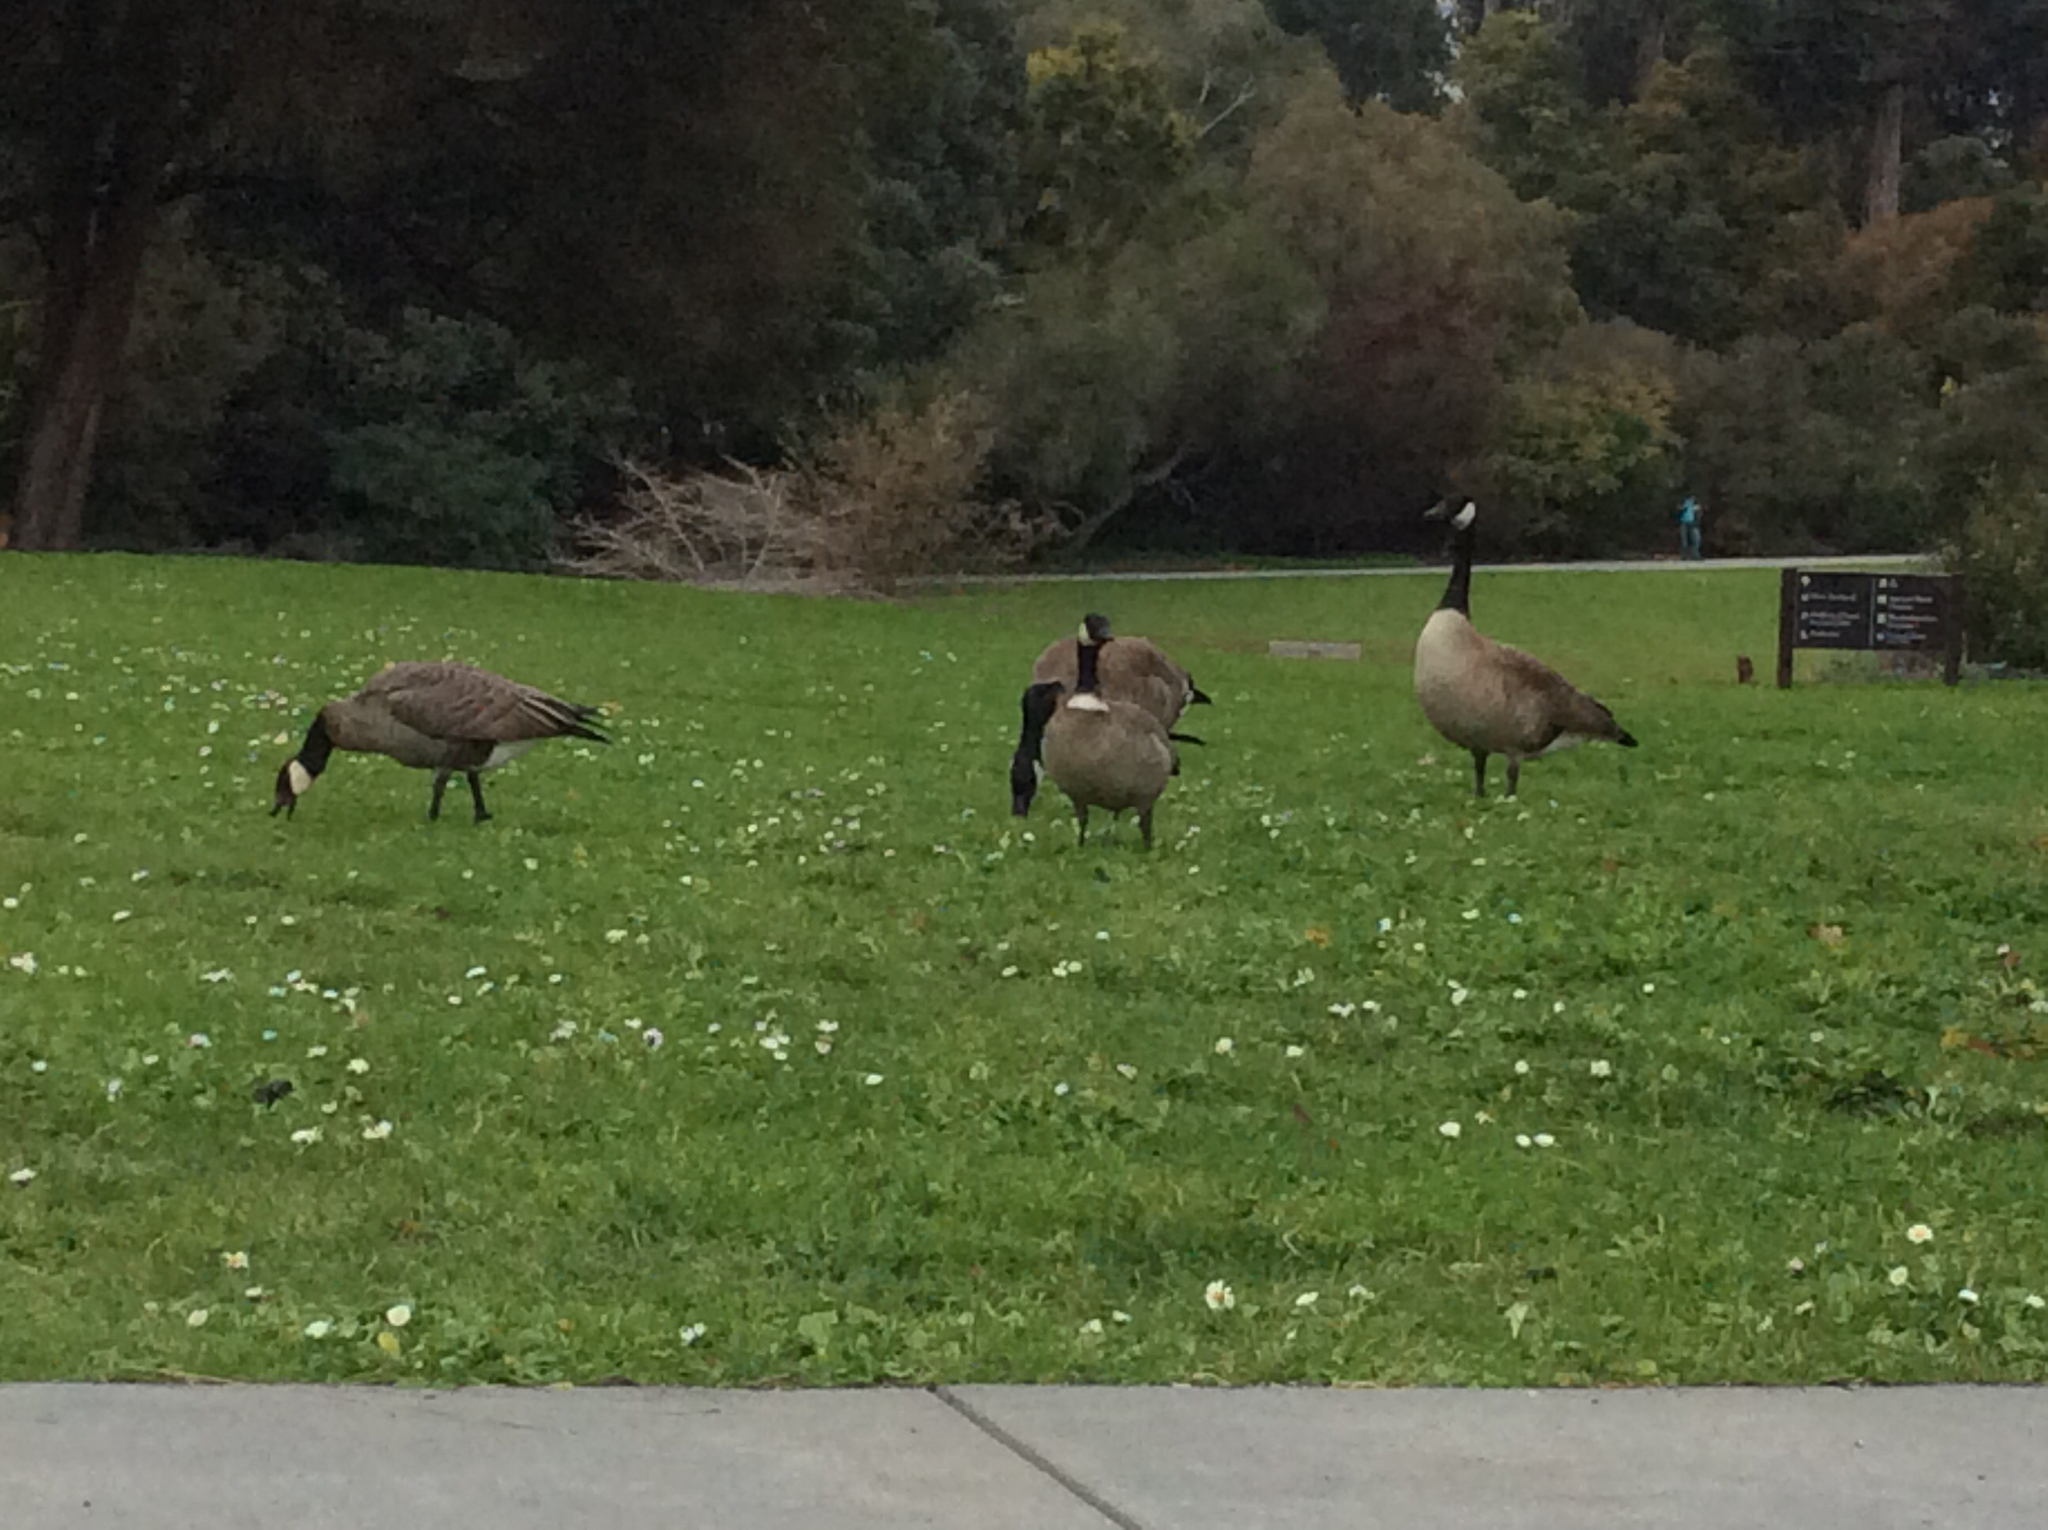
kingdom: Animalia
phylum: Chordata
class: Aves
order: Anseriformes
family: Anatidae
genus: Branta
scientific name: Branta hutchinsii
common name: Cackling goose
